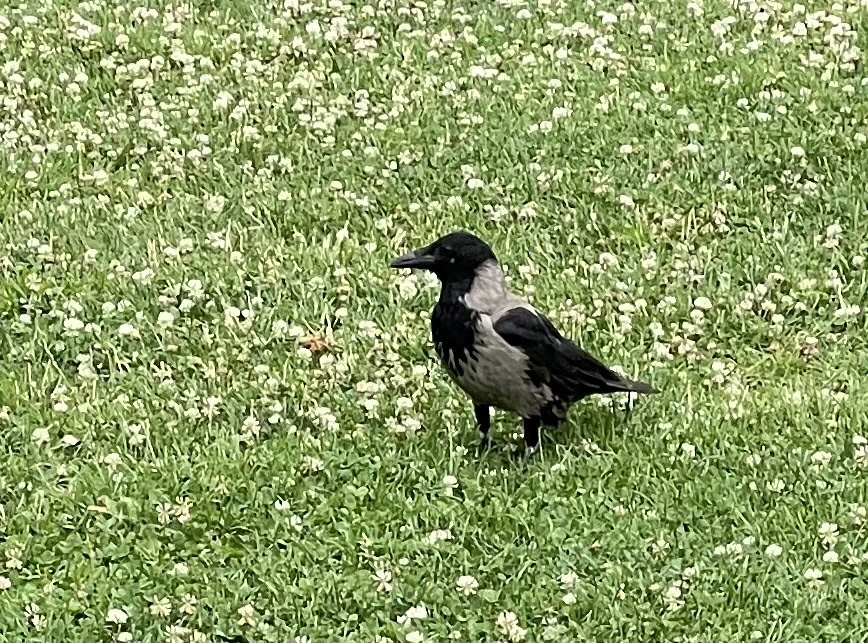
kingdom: Animalia
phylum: Chordata
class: Aves
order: Passeriformes
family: Corvidae
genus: Corvus
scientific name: Corvus
